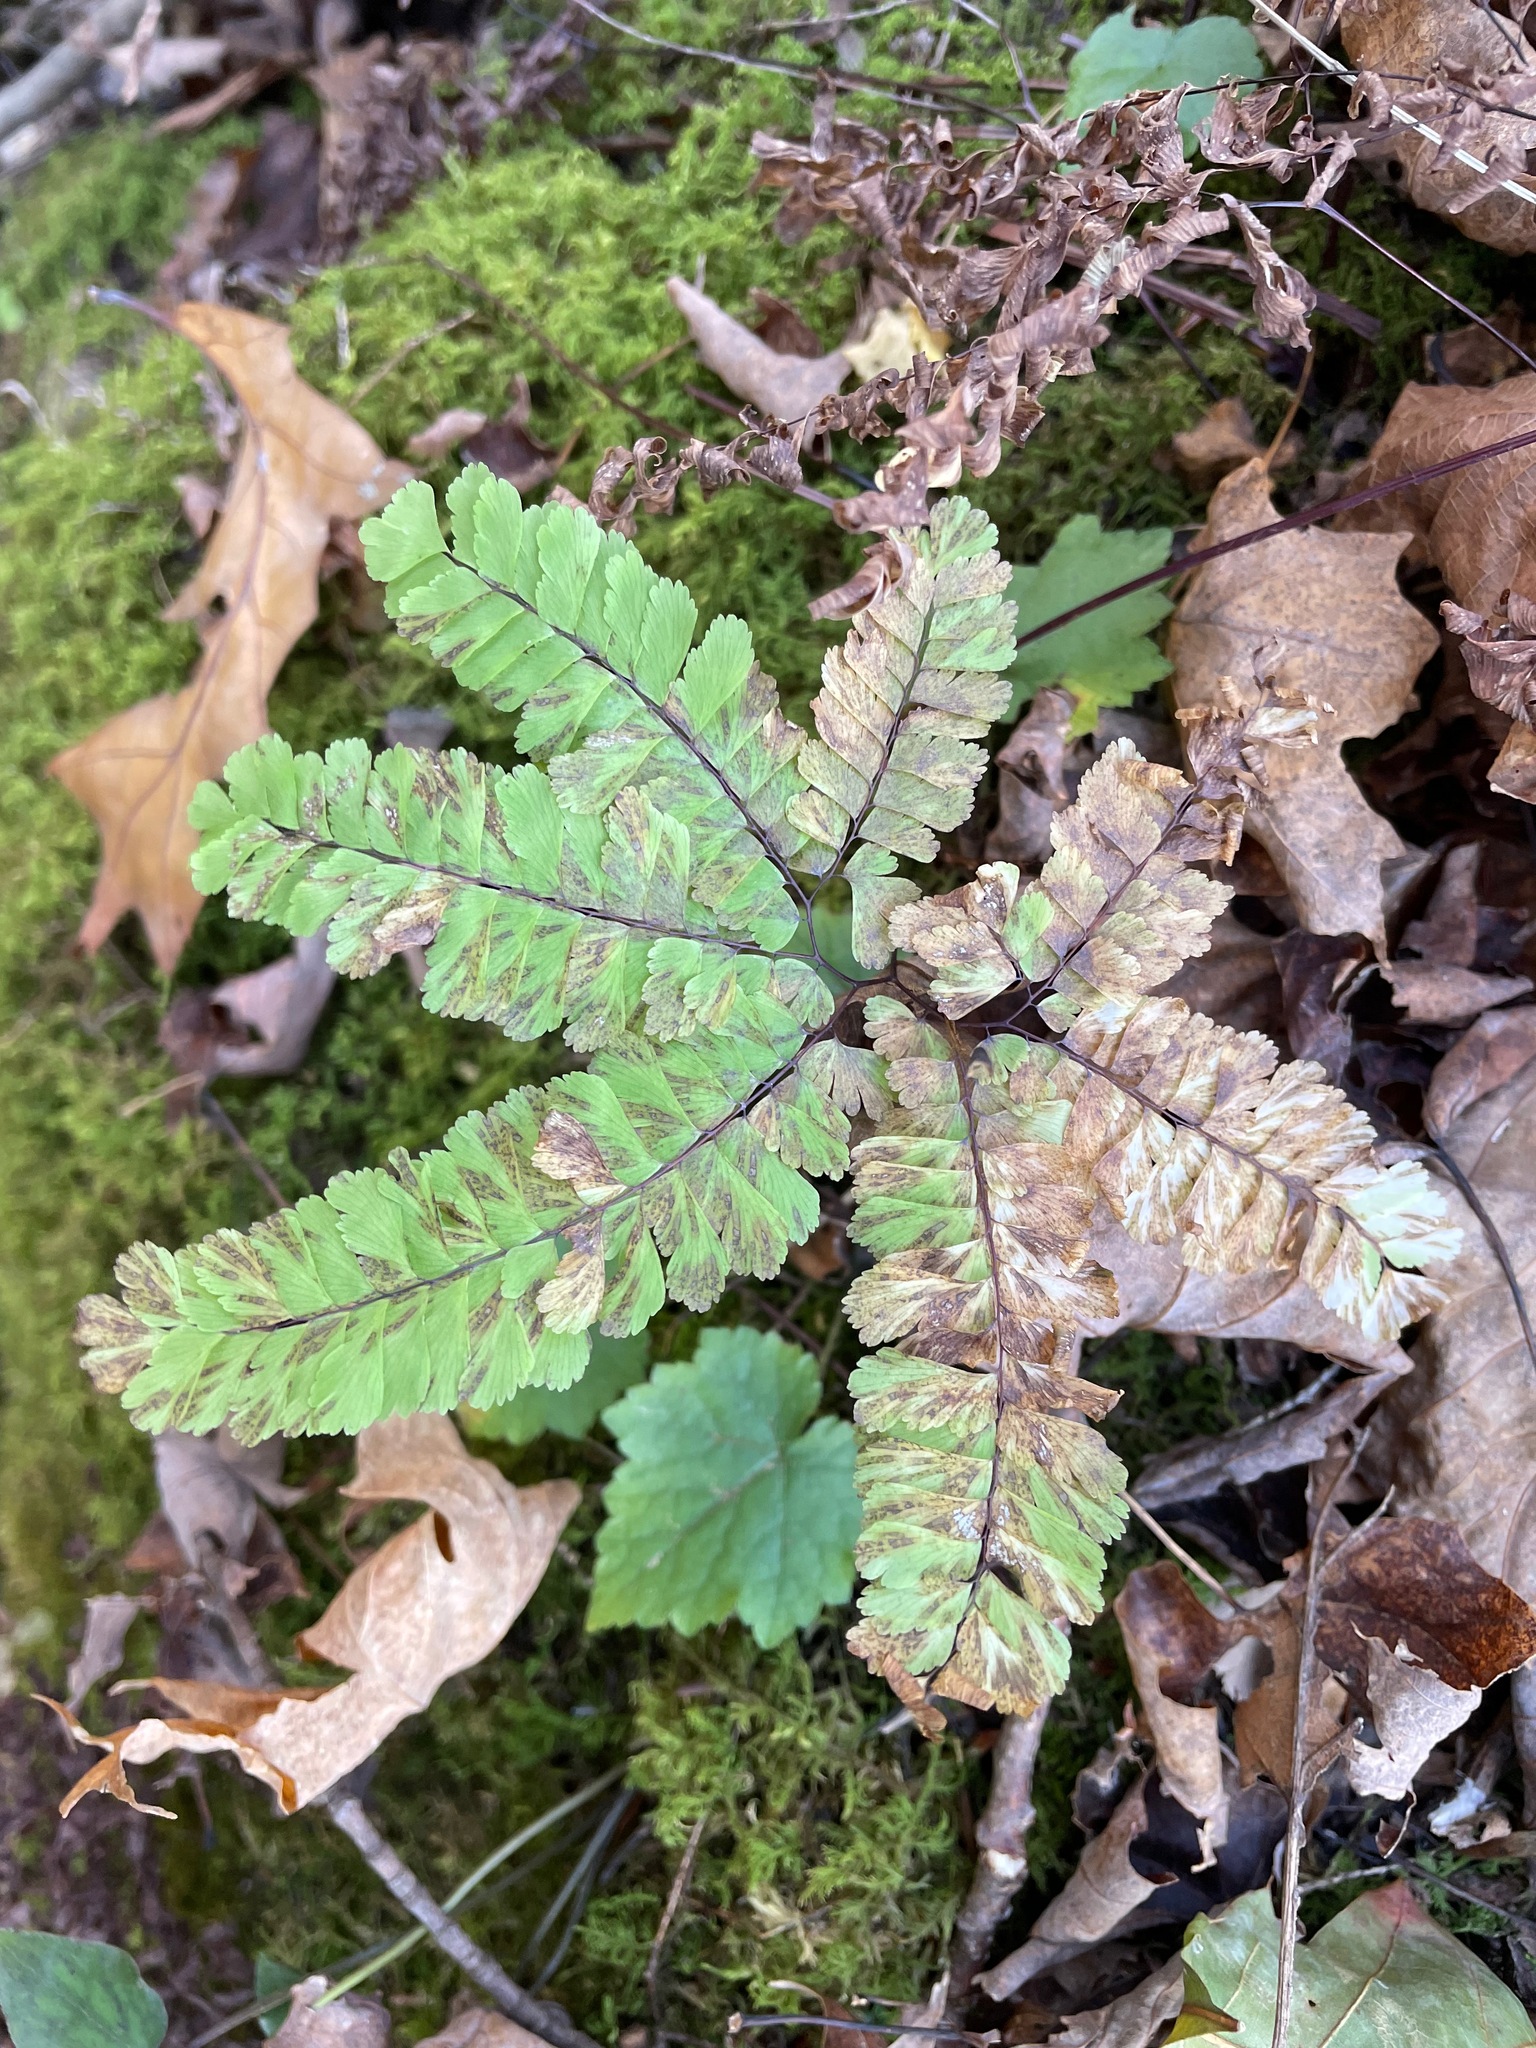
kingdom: Plantae
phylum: Tracheophyta
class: Polypodiopsida
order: Polypodiales
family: Pteridaceae
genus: Adiantum
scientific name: Adiantum pedatum
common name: Five-finger fern
